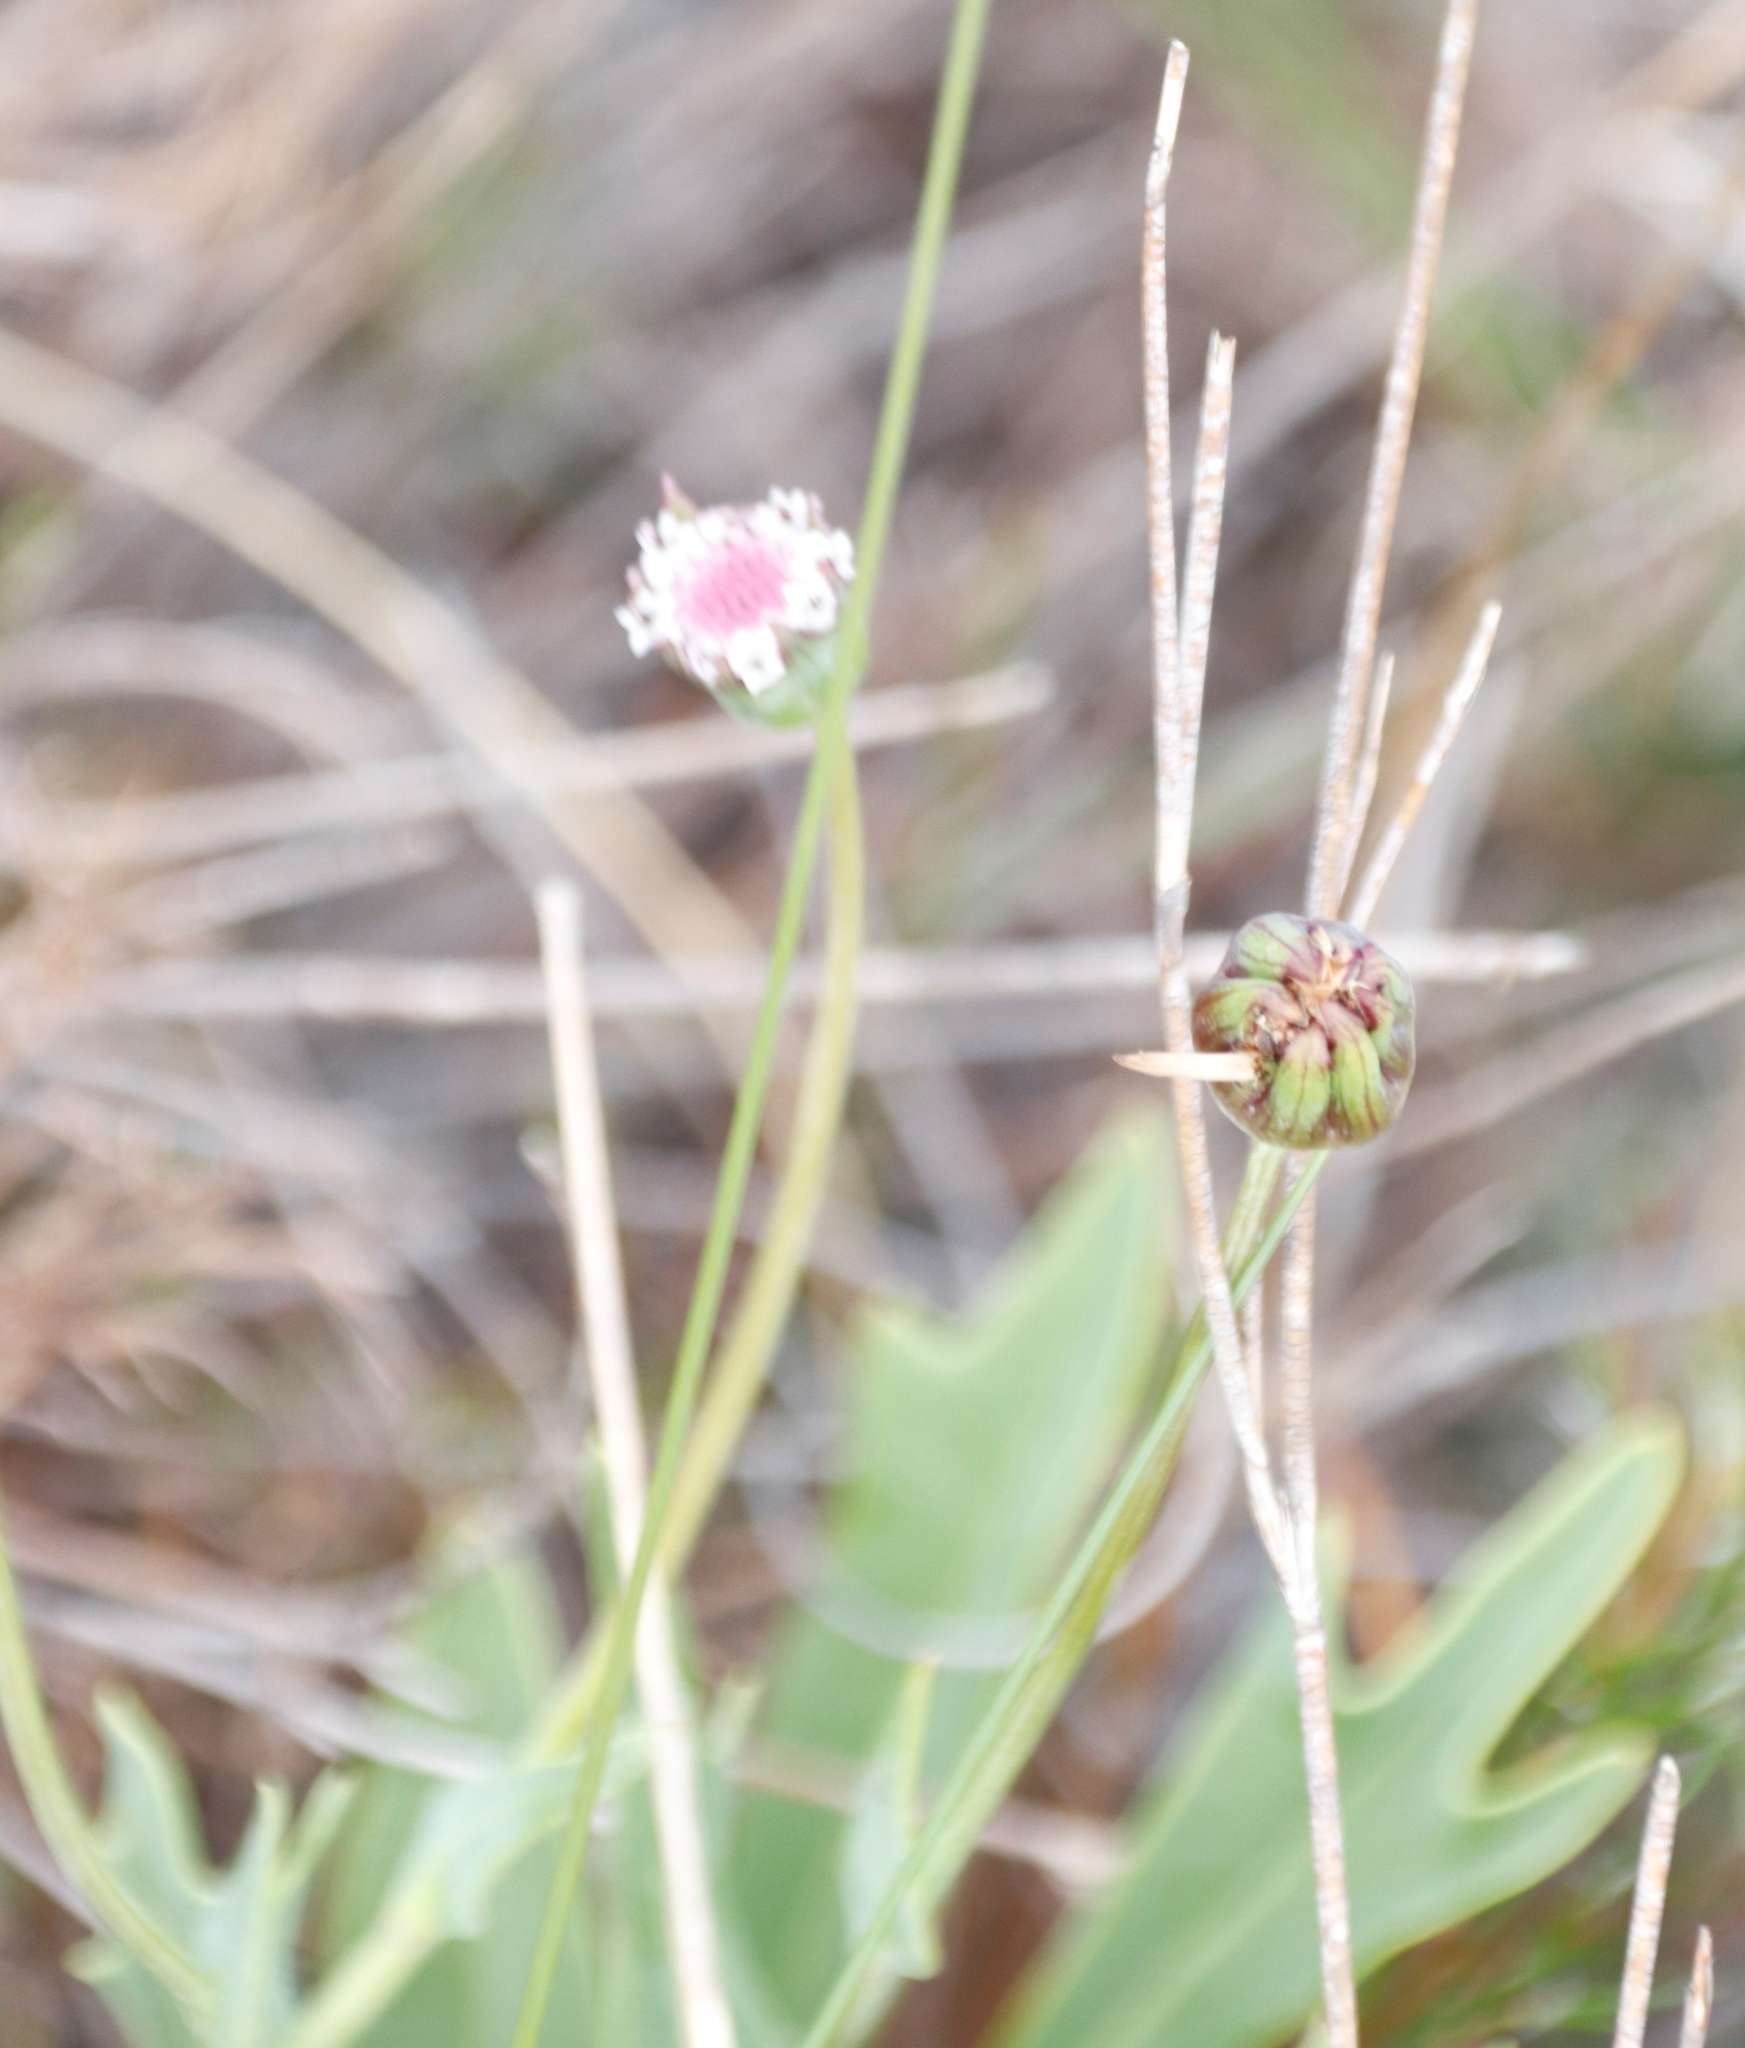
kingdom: Plantae
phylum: Tracheophyta
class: Magnoliopsida
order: Asterales
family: Asteraceae
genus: Othonna
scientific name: Othonna digitata
